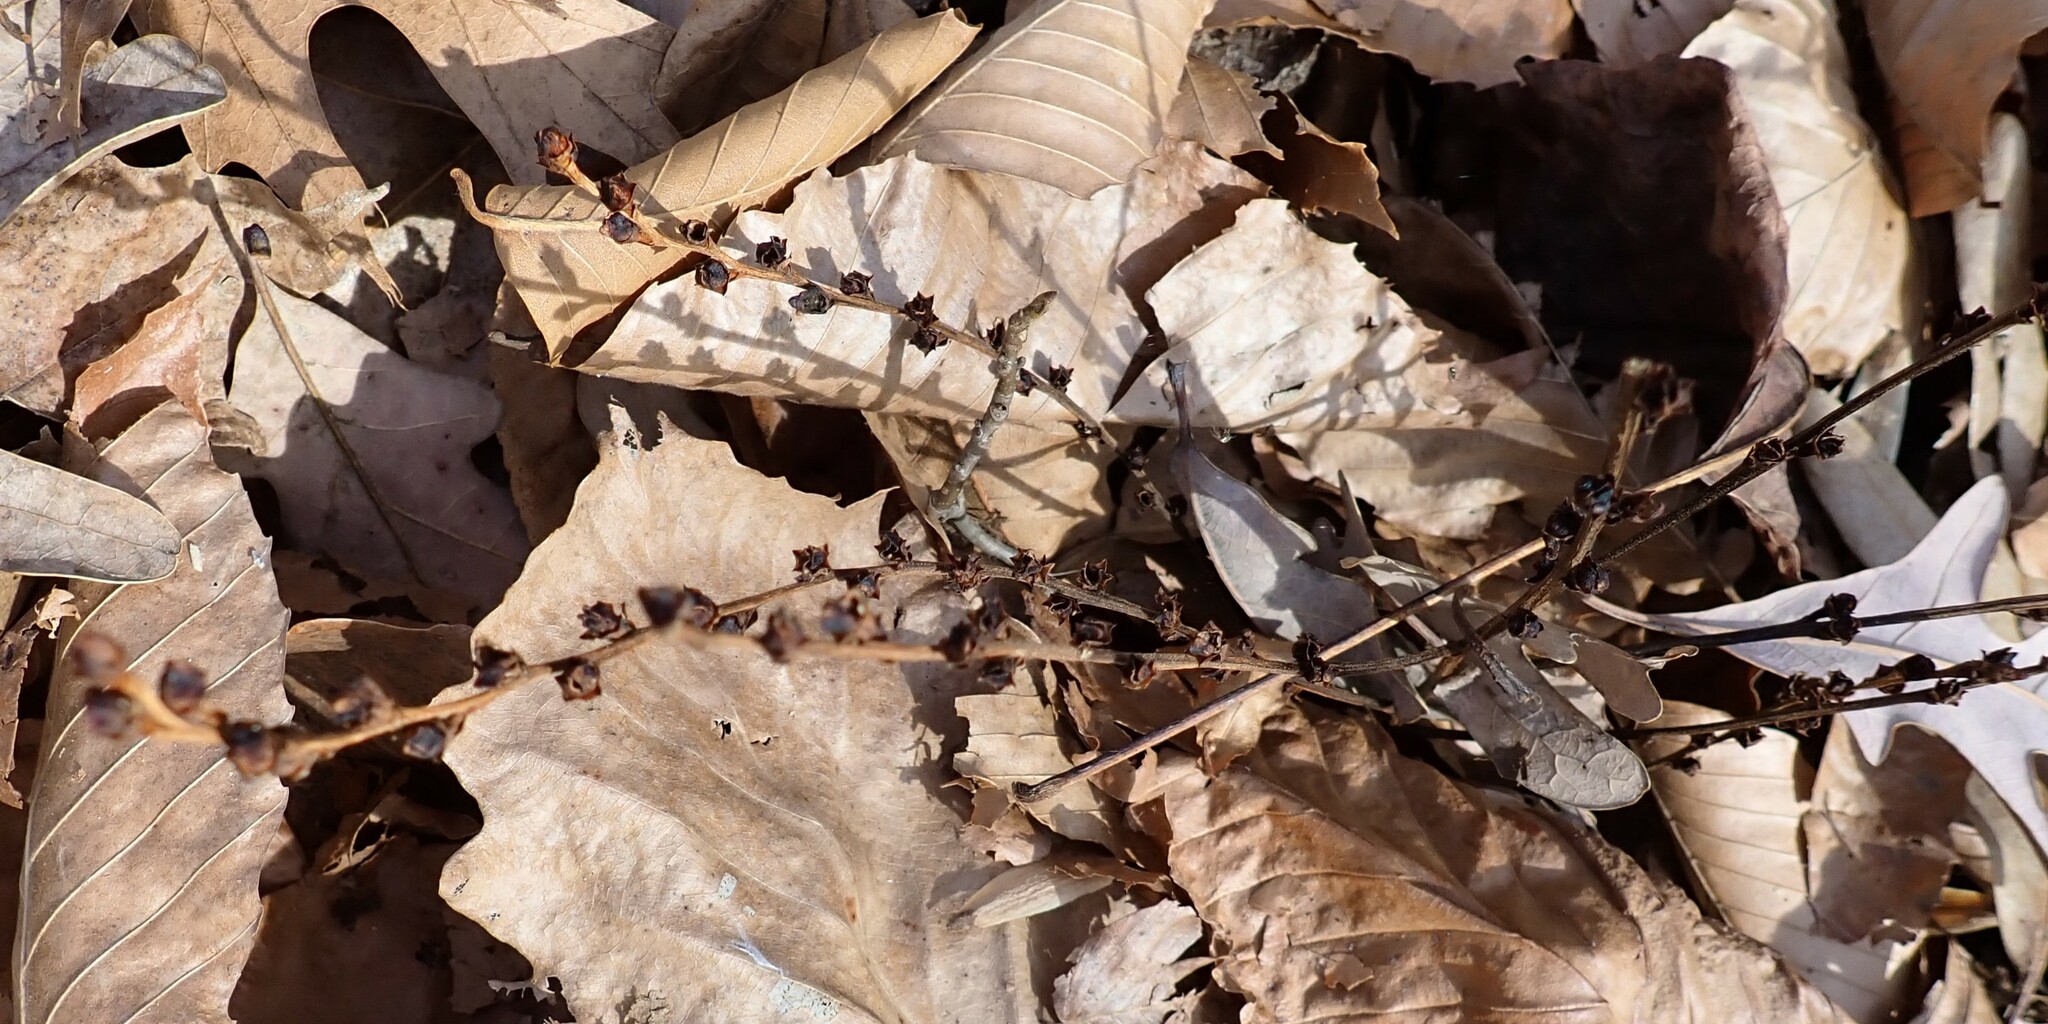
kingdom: Plantae
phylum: Tracheophyta
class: Magnoliopsida
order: Lamiales
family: Orobanchaceae
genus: Epifagus
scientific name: Epifagus virginiana
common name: Beechdrops
